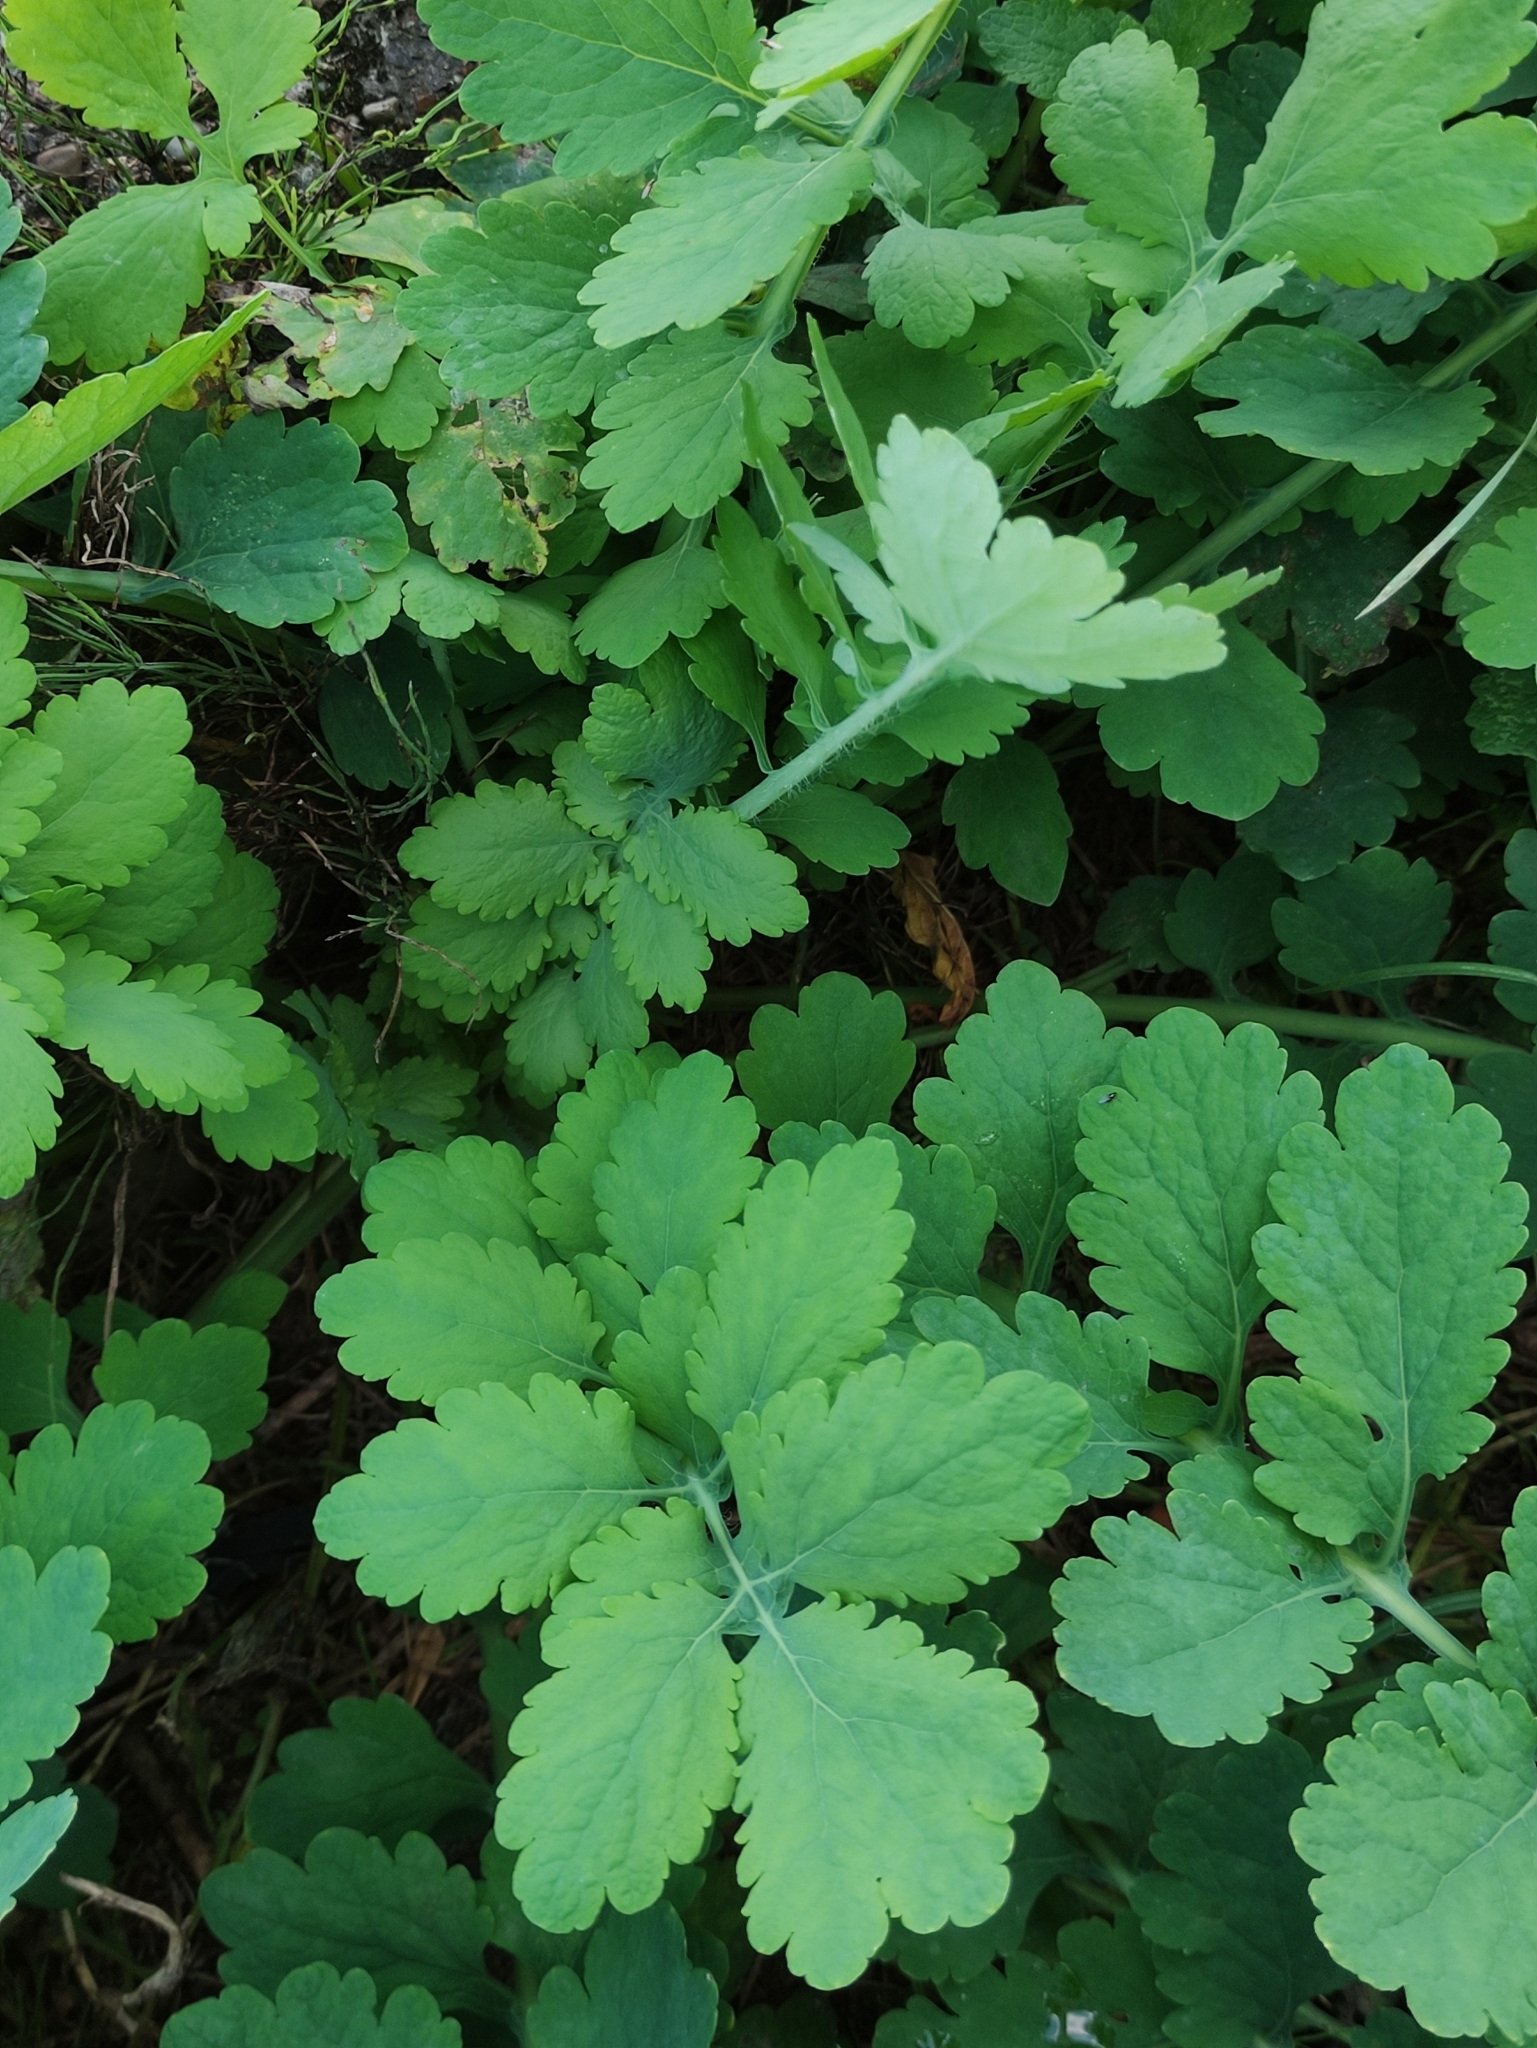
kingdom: Plantae
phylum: Tracheophyta
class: Magnoliopsida
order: Ranunculales
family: Papaveraceae
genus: Chelidonium
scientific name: Chelidonium majus
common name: Greater celandine
